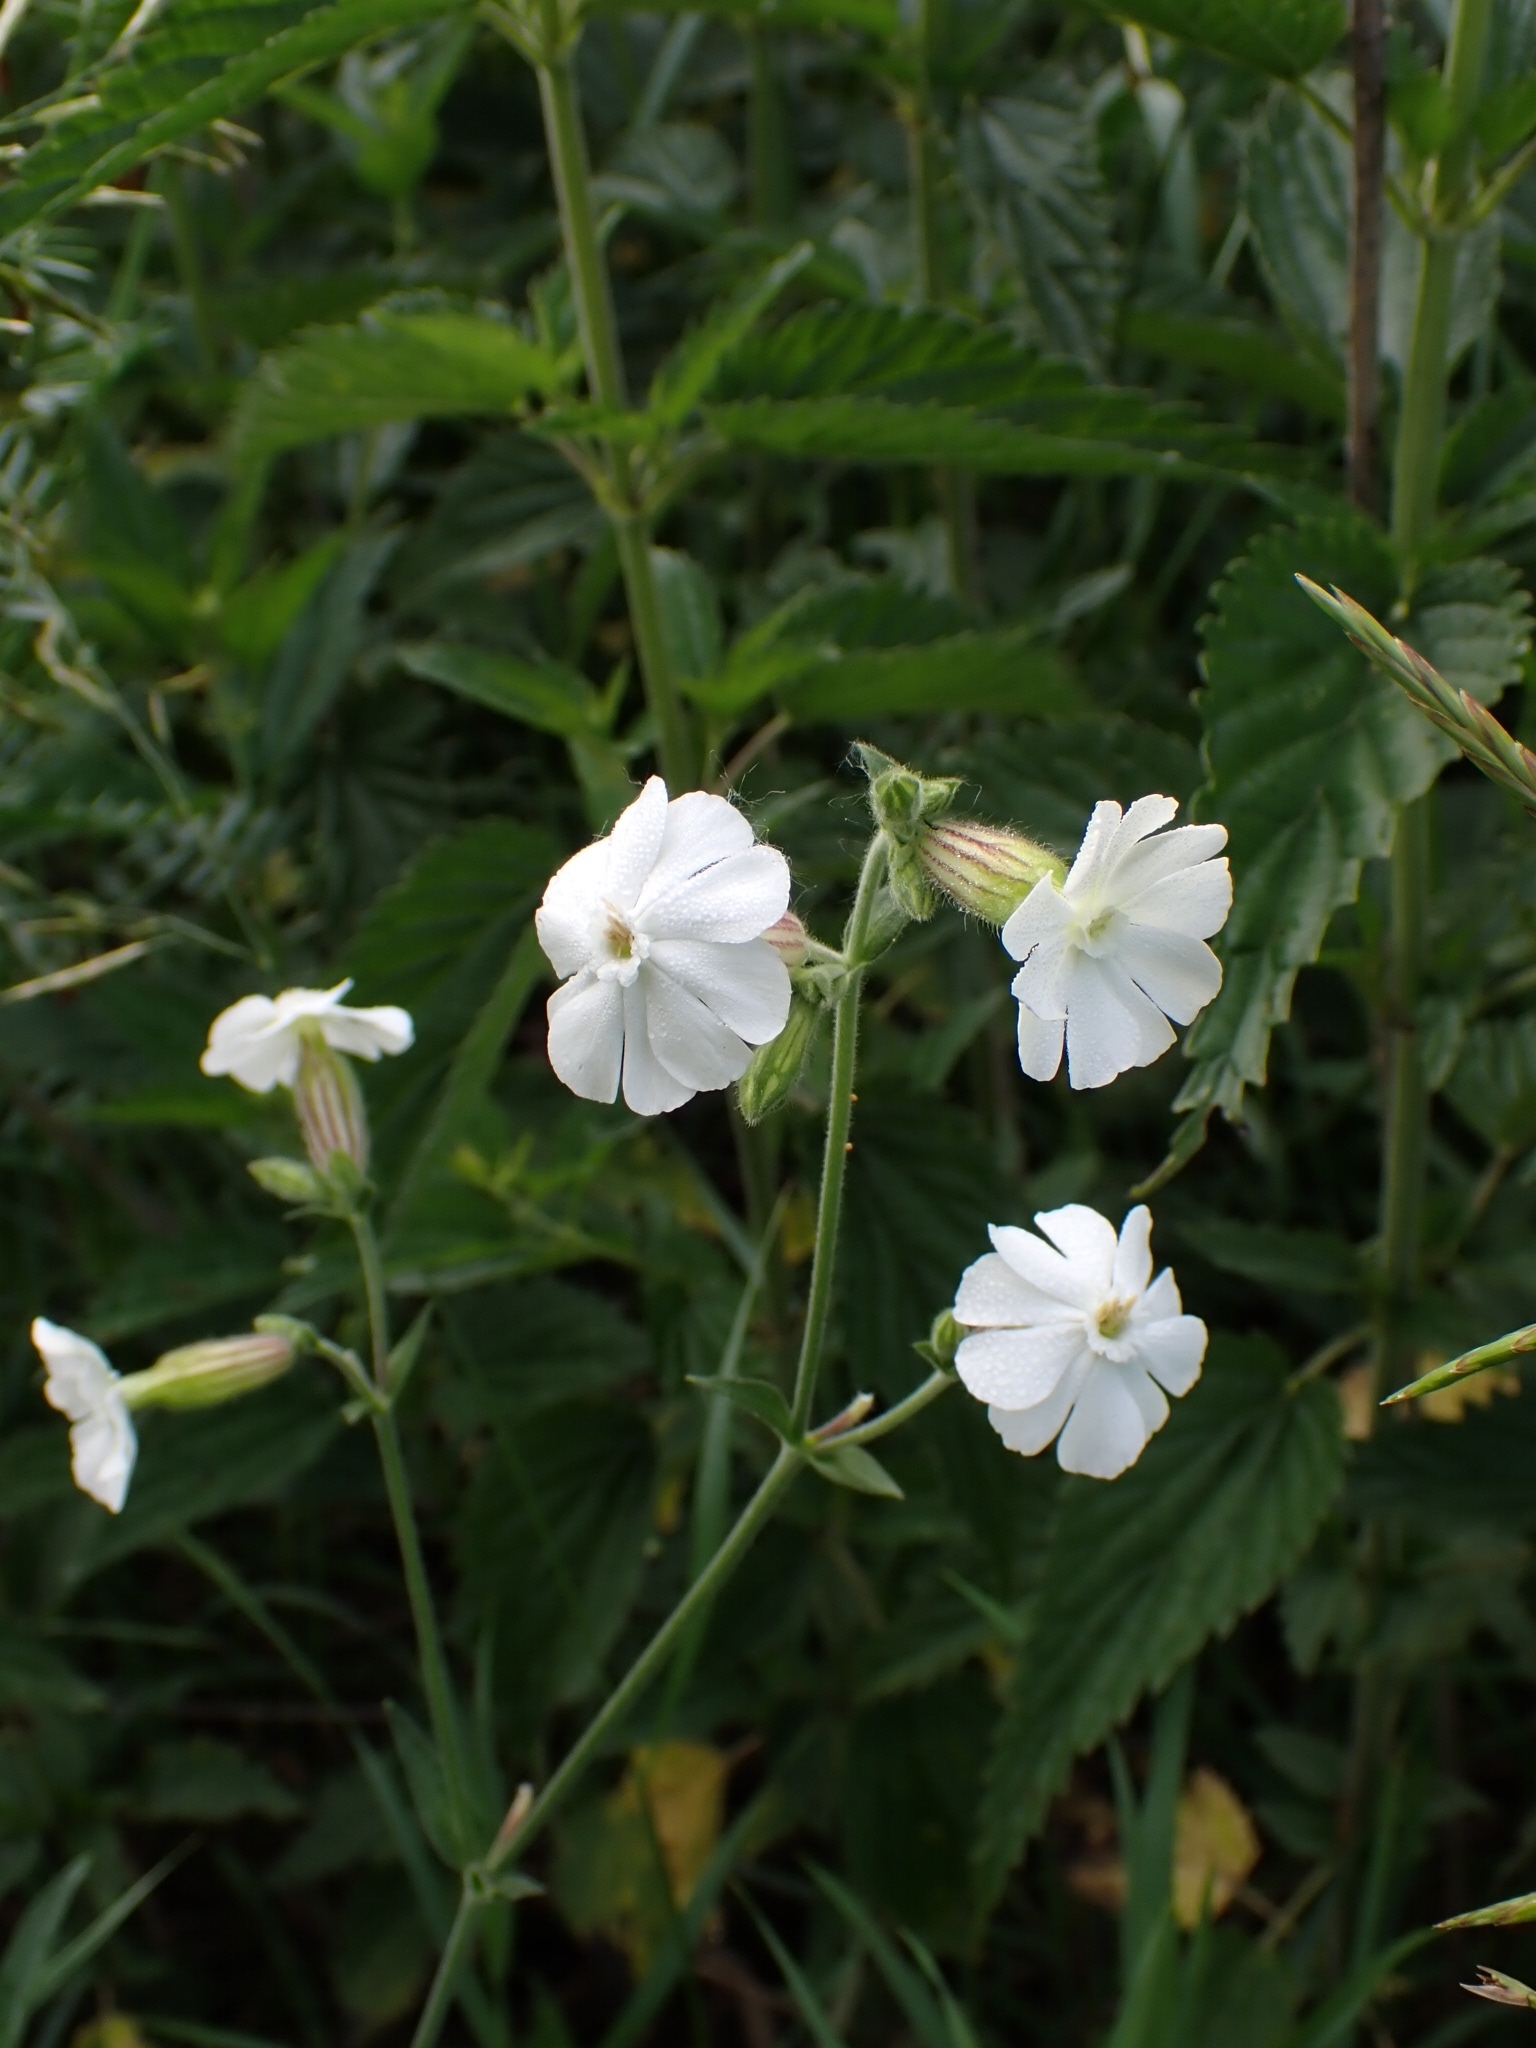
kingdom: Plantae
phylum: Tracheophyta
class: Magnoliopsida
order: Caryophyllales
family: Caryophyllaceae
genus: Silene
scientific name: Silene latifolia
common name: White campion
